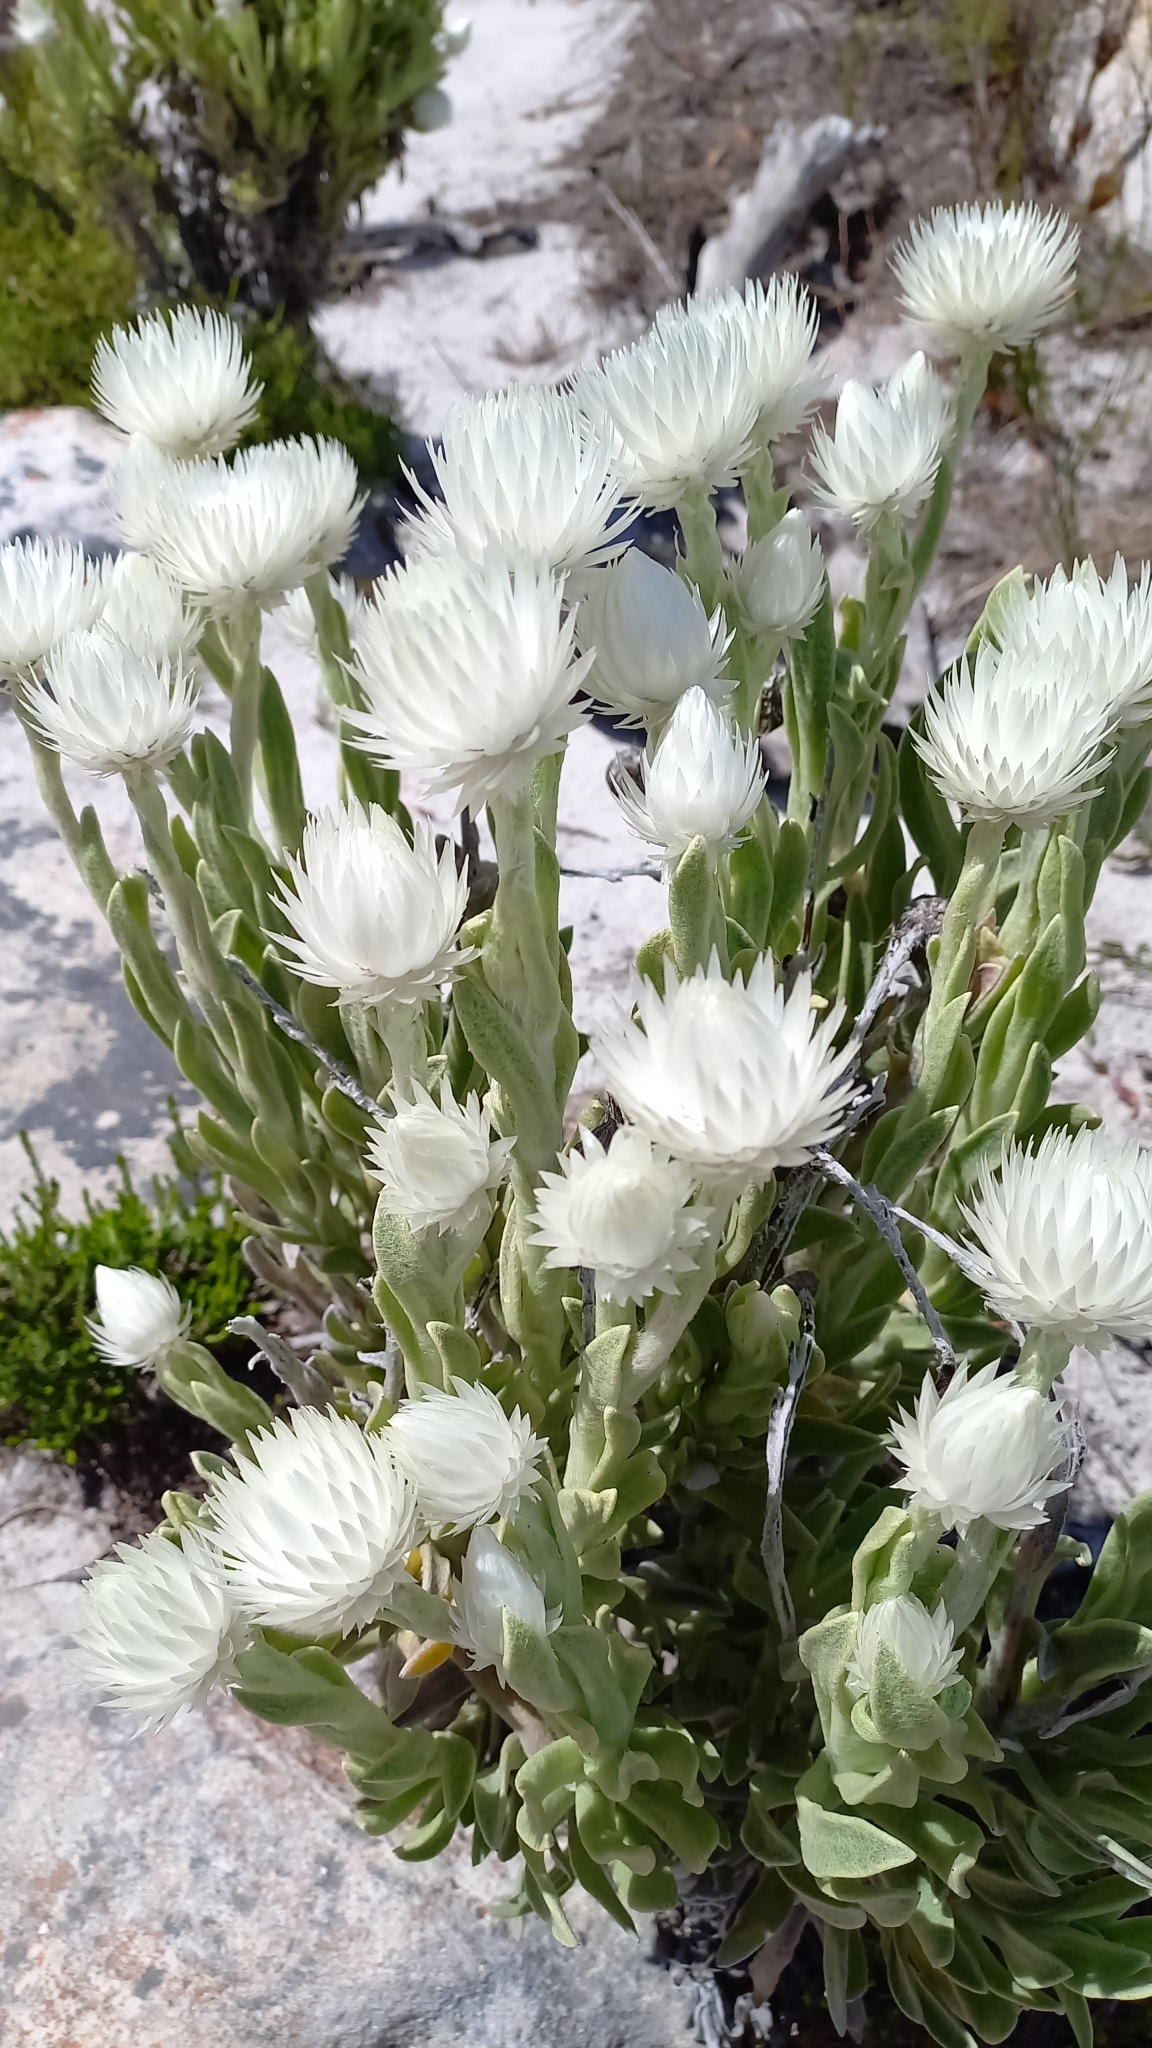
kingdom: Plantae
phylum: Tracheophyta
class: Magnoliopsida
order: Asterales
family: Asteraceae
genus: Syncarpha
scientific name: Syncarpha vestita
